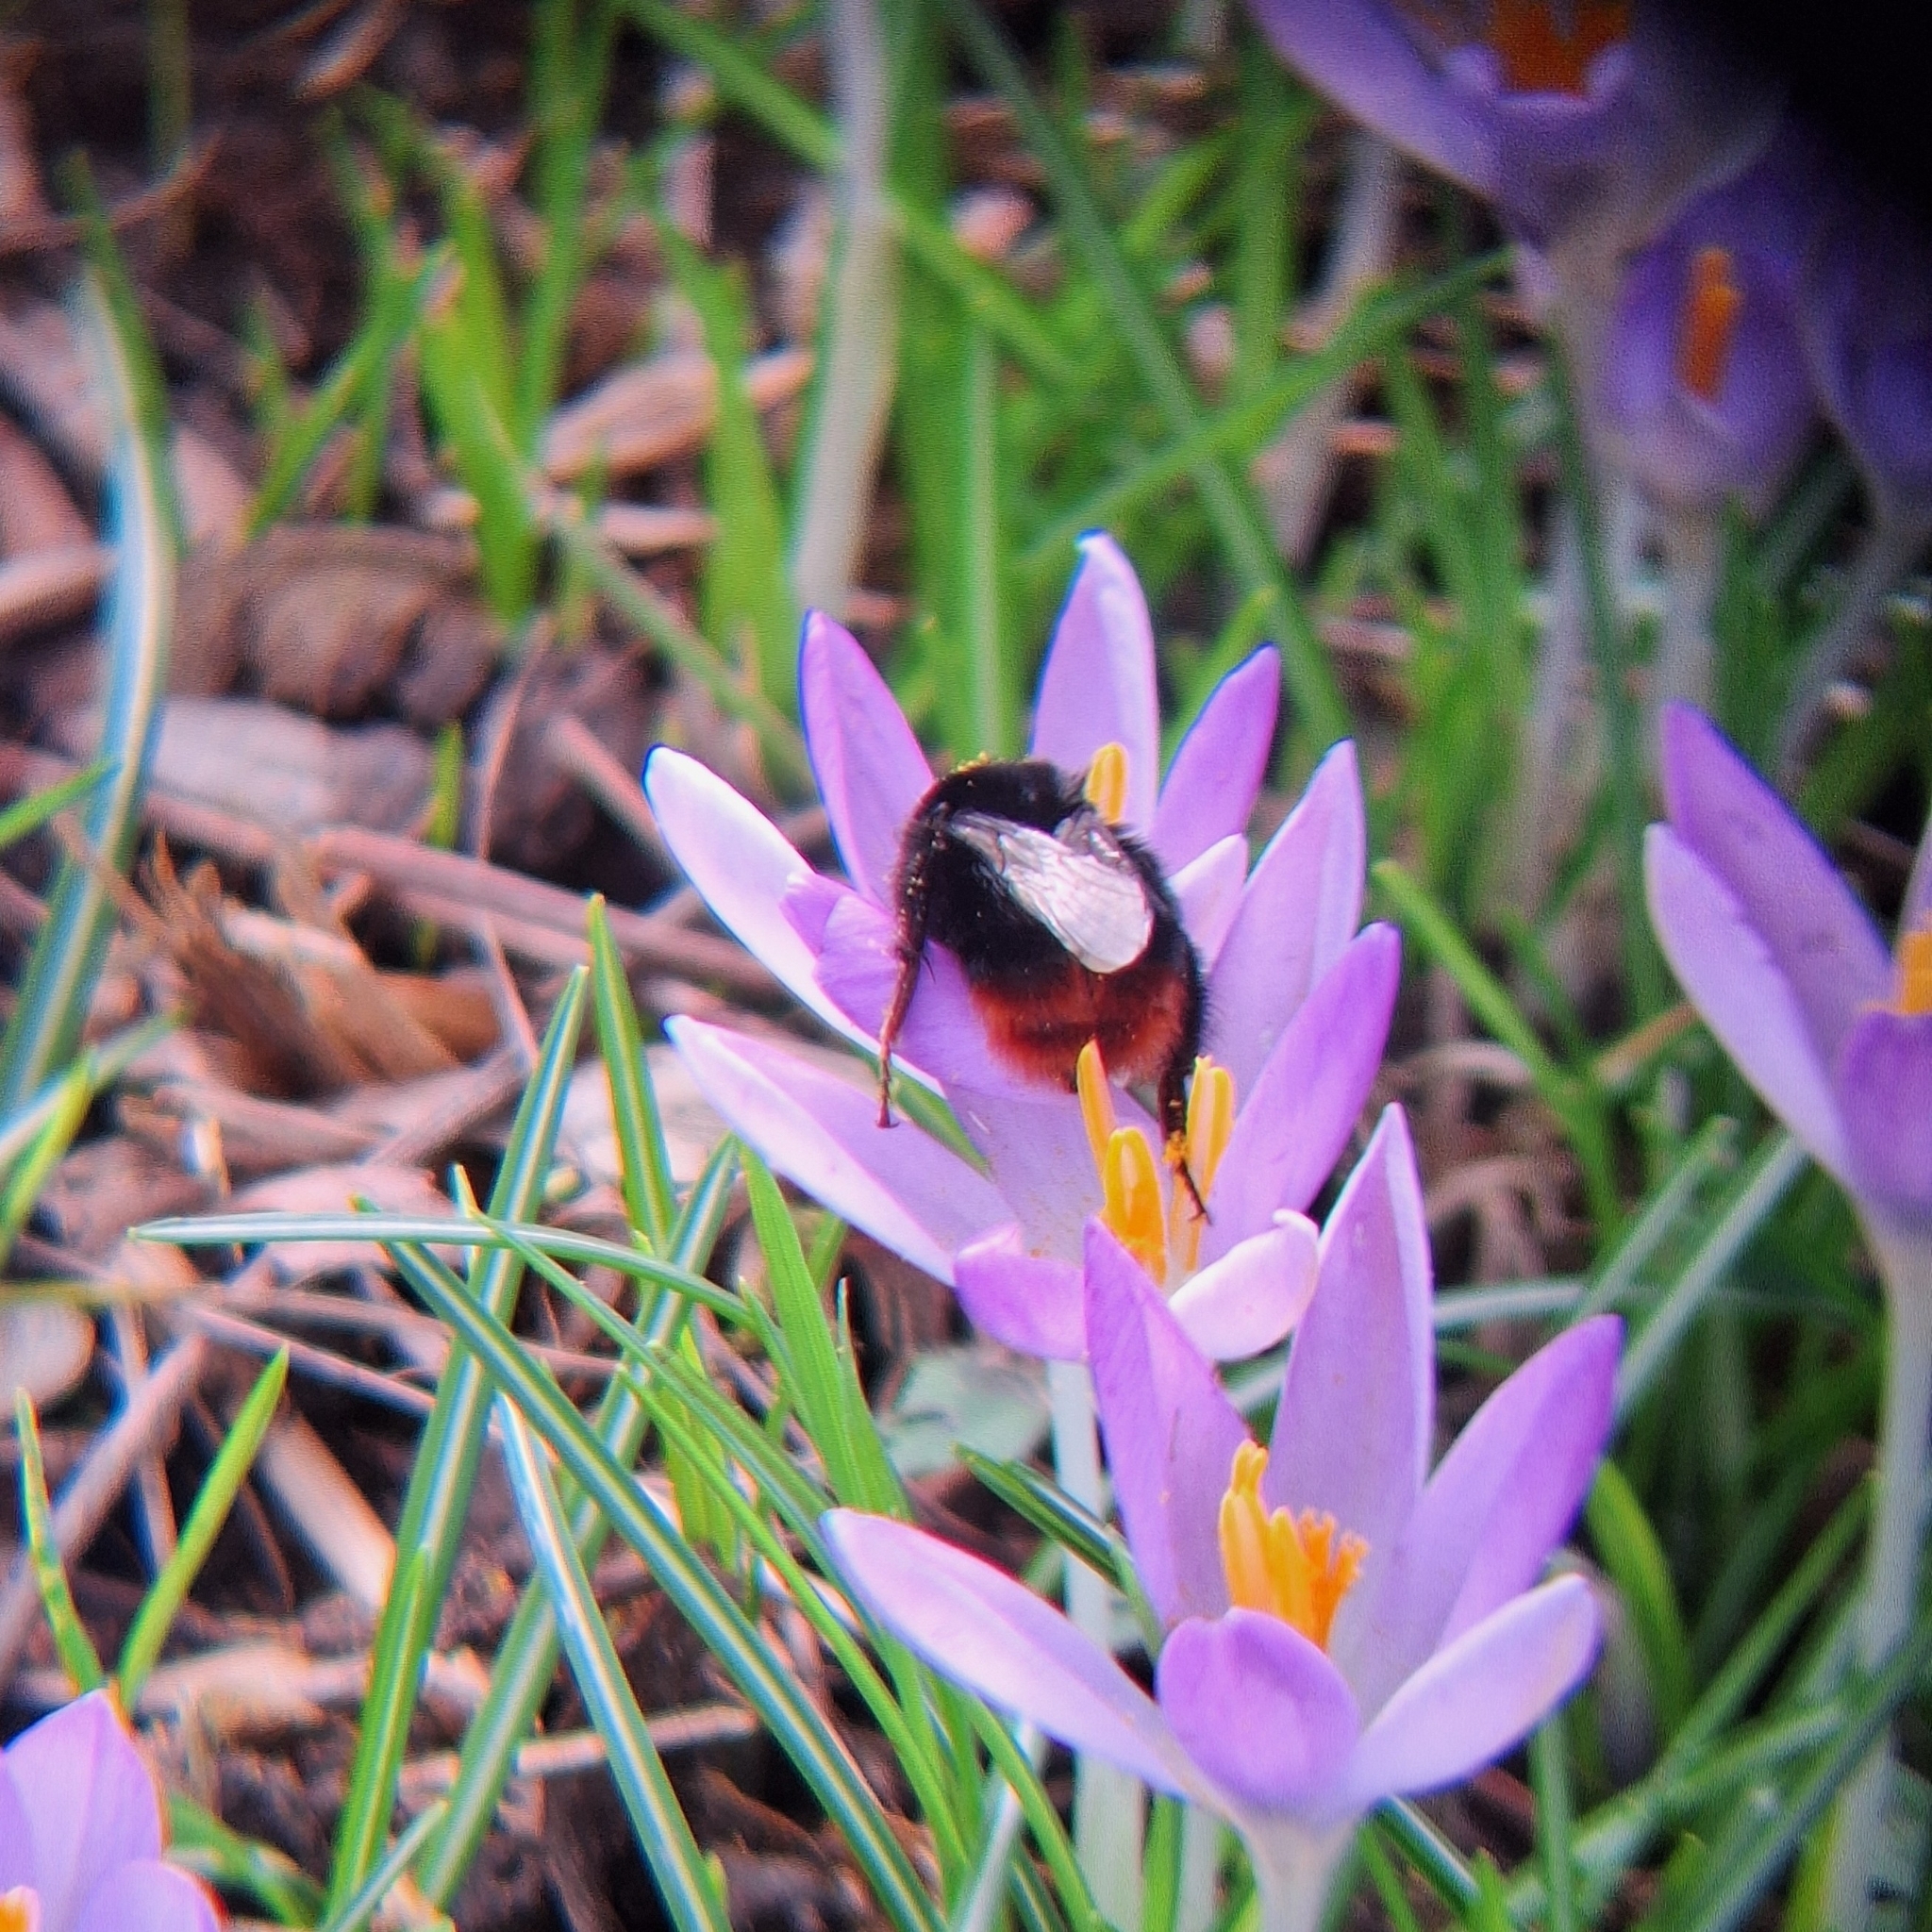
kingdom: Animalia
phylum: Arthropoda
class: Insecta
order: Hymenoptera
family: Apidae
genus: Bombus
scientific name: Bombus lapidarius
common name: Large red-tailed humble-bee
